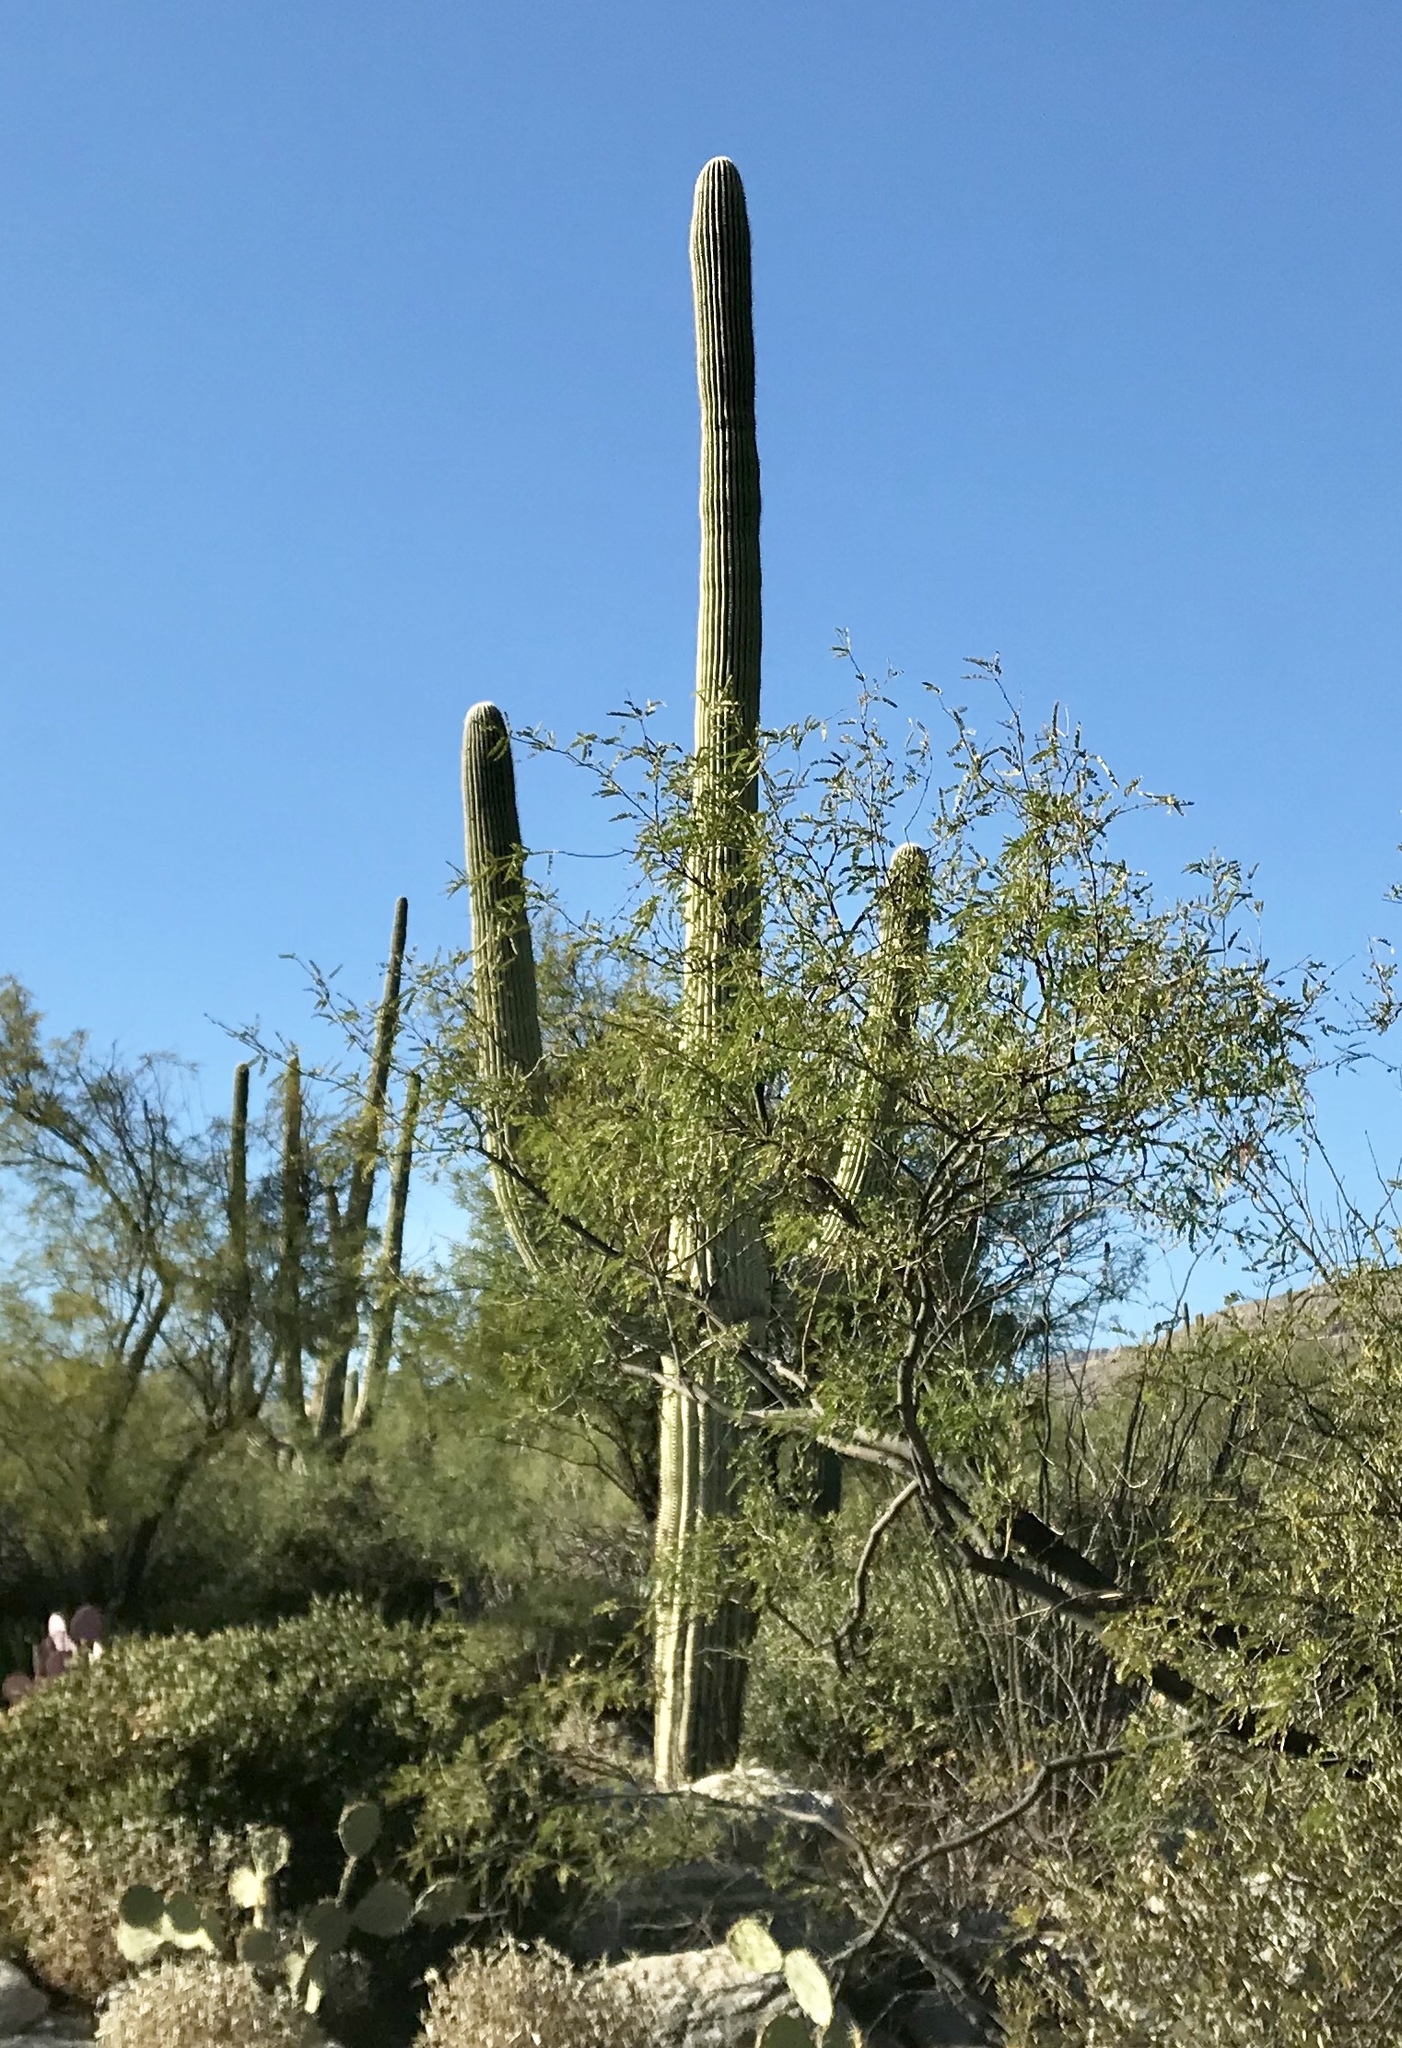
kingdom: Plantae
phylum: Tracheophyta
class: Magnoliopsida
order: Caryophyllales
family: Cactaceae
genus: Carnegiea
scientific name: Carnegiea gigantea
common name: Saguaro
